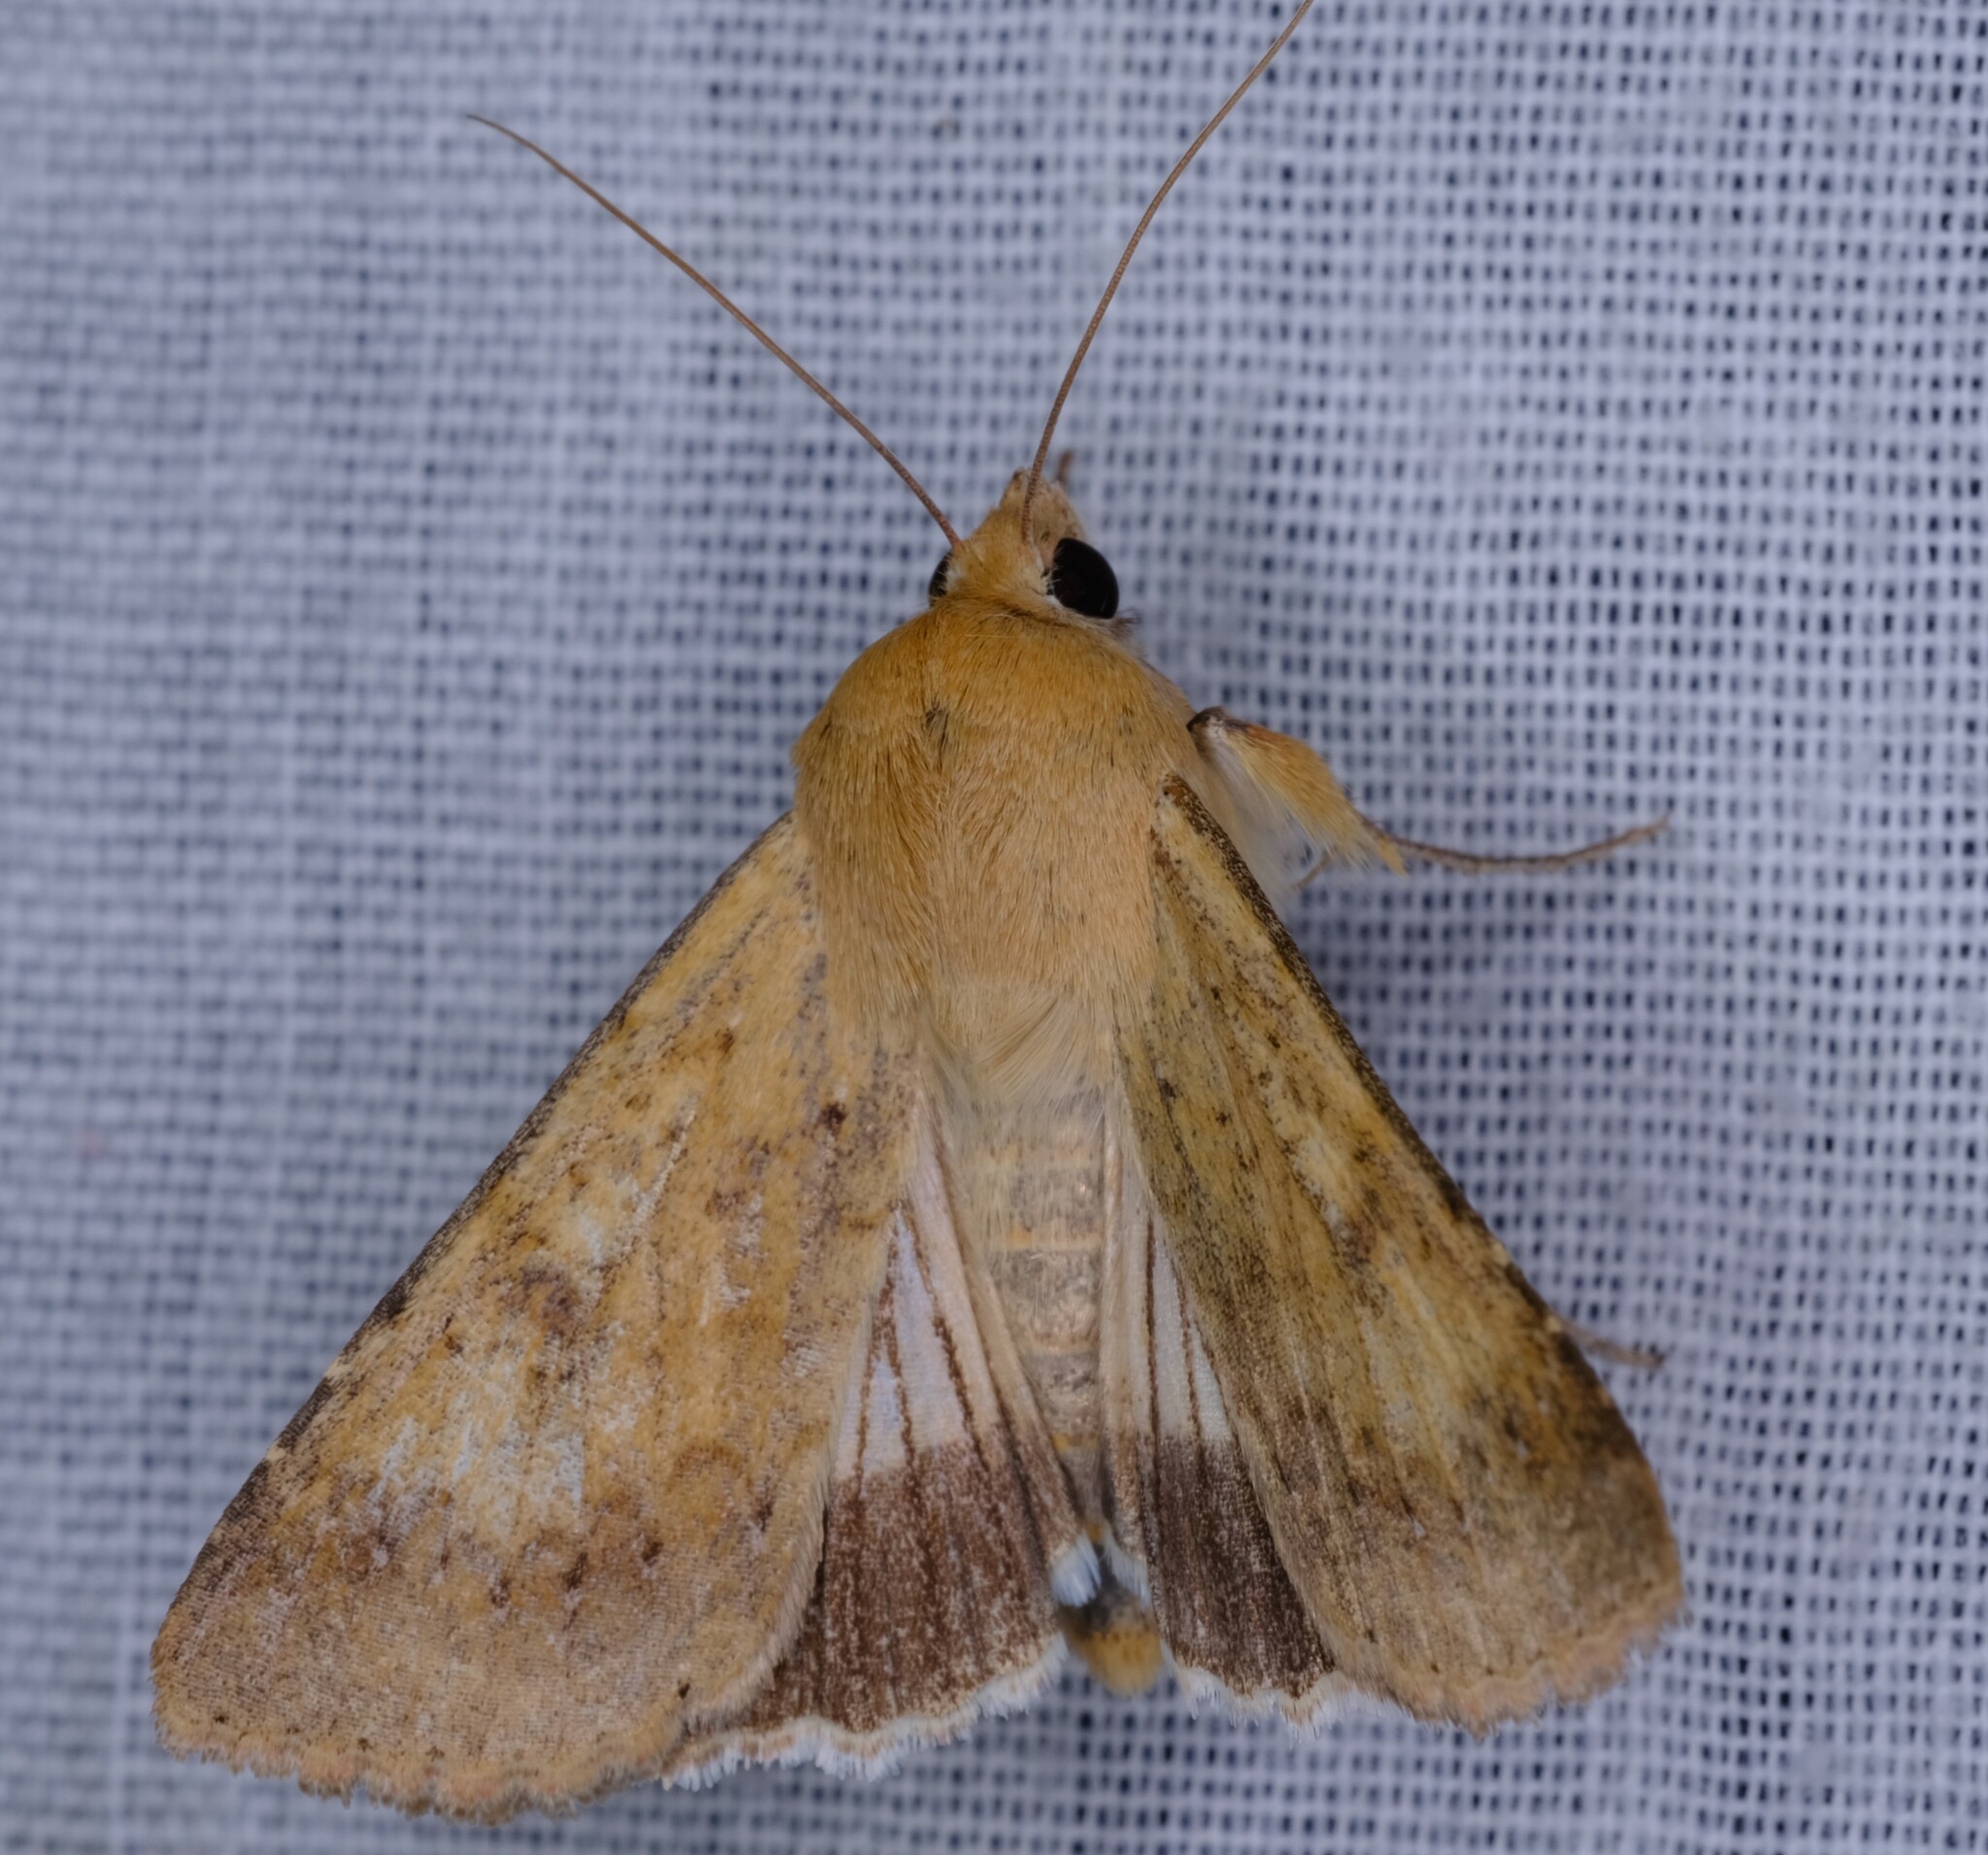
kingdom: Animalia
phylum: Arthropoda
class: Insecta
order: Lepidoptera
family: Noctuidae
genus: Helicoverpa
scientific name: Helicoverpa punctigera
